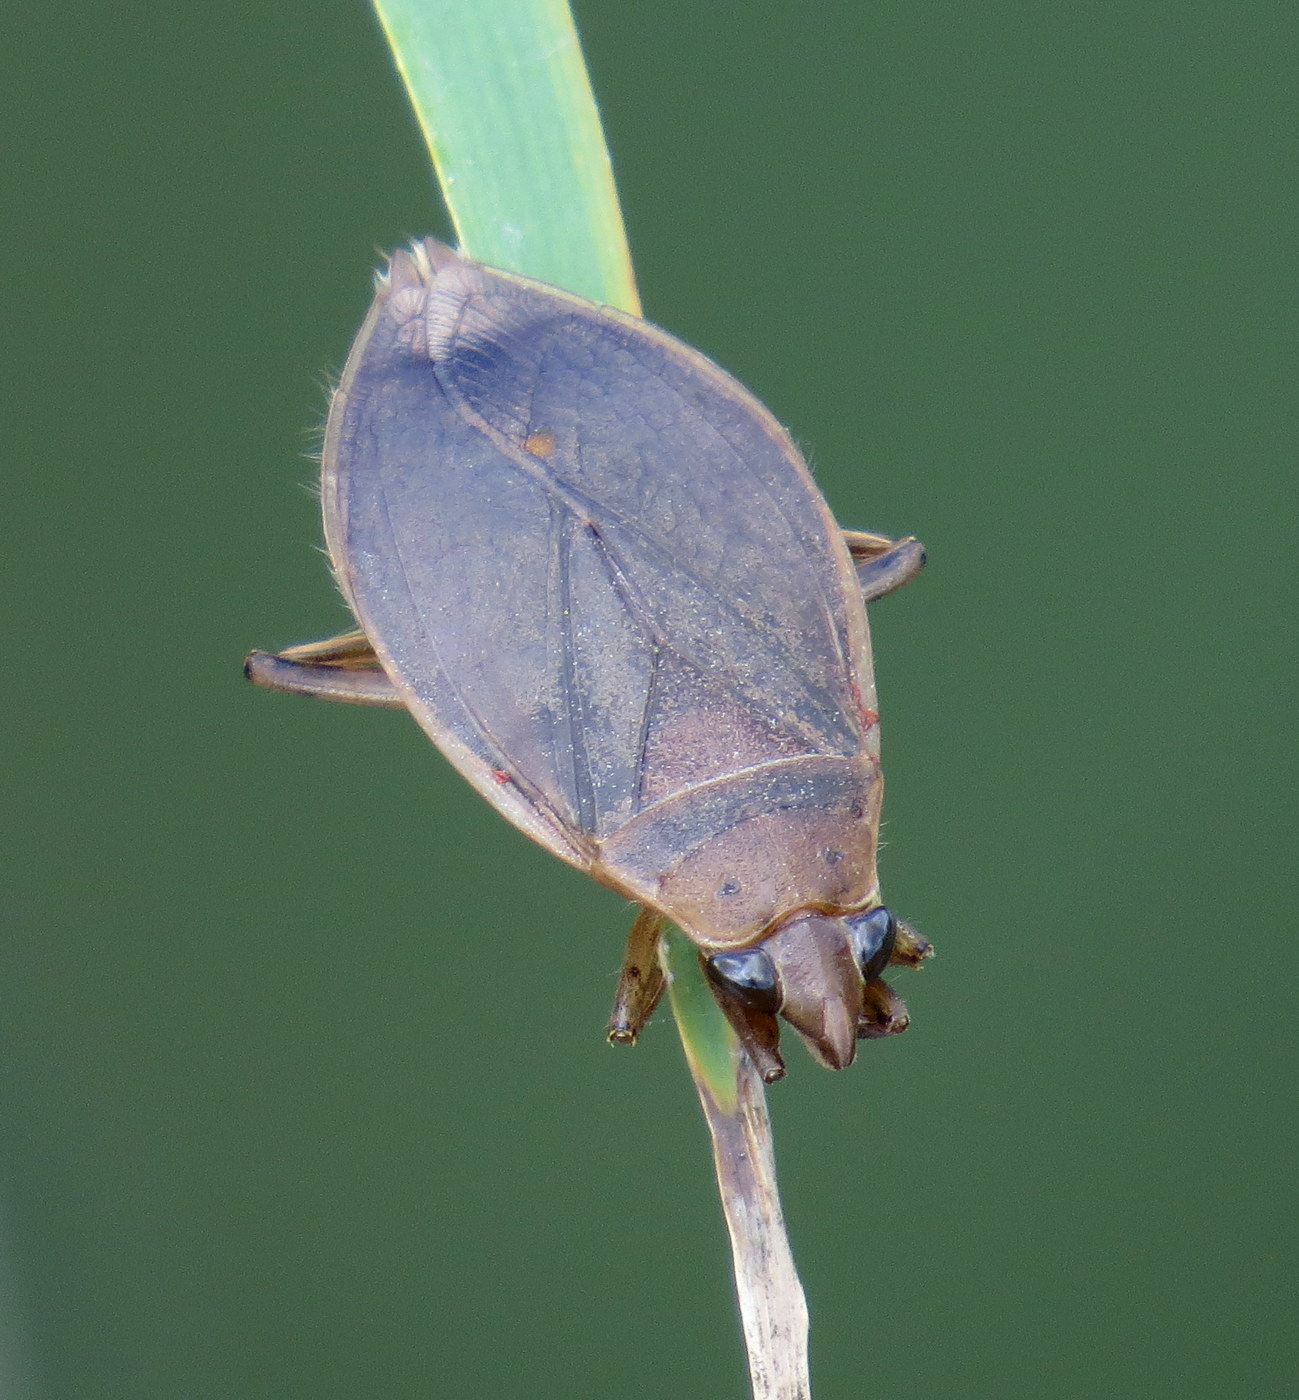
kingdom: Animalia
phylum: Arthropoda
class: Insecta
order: Hemiptera
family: Belostomatidae
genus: Belostoma
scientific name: Belostoma
